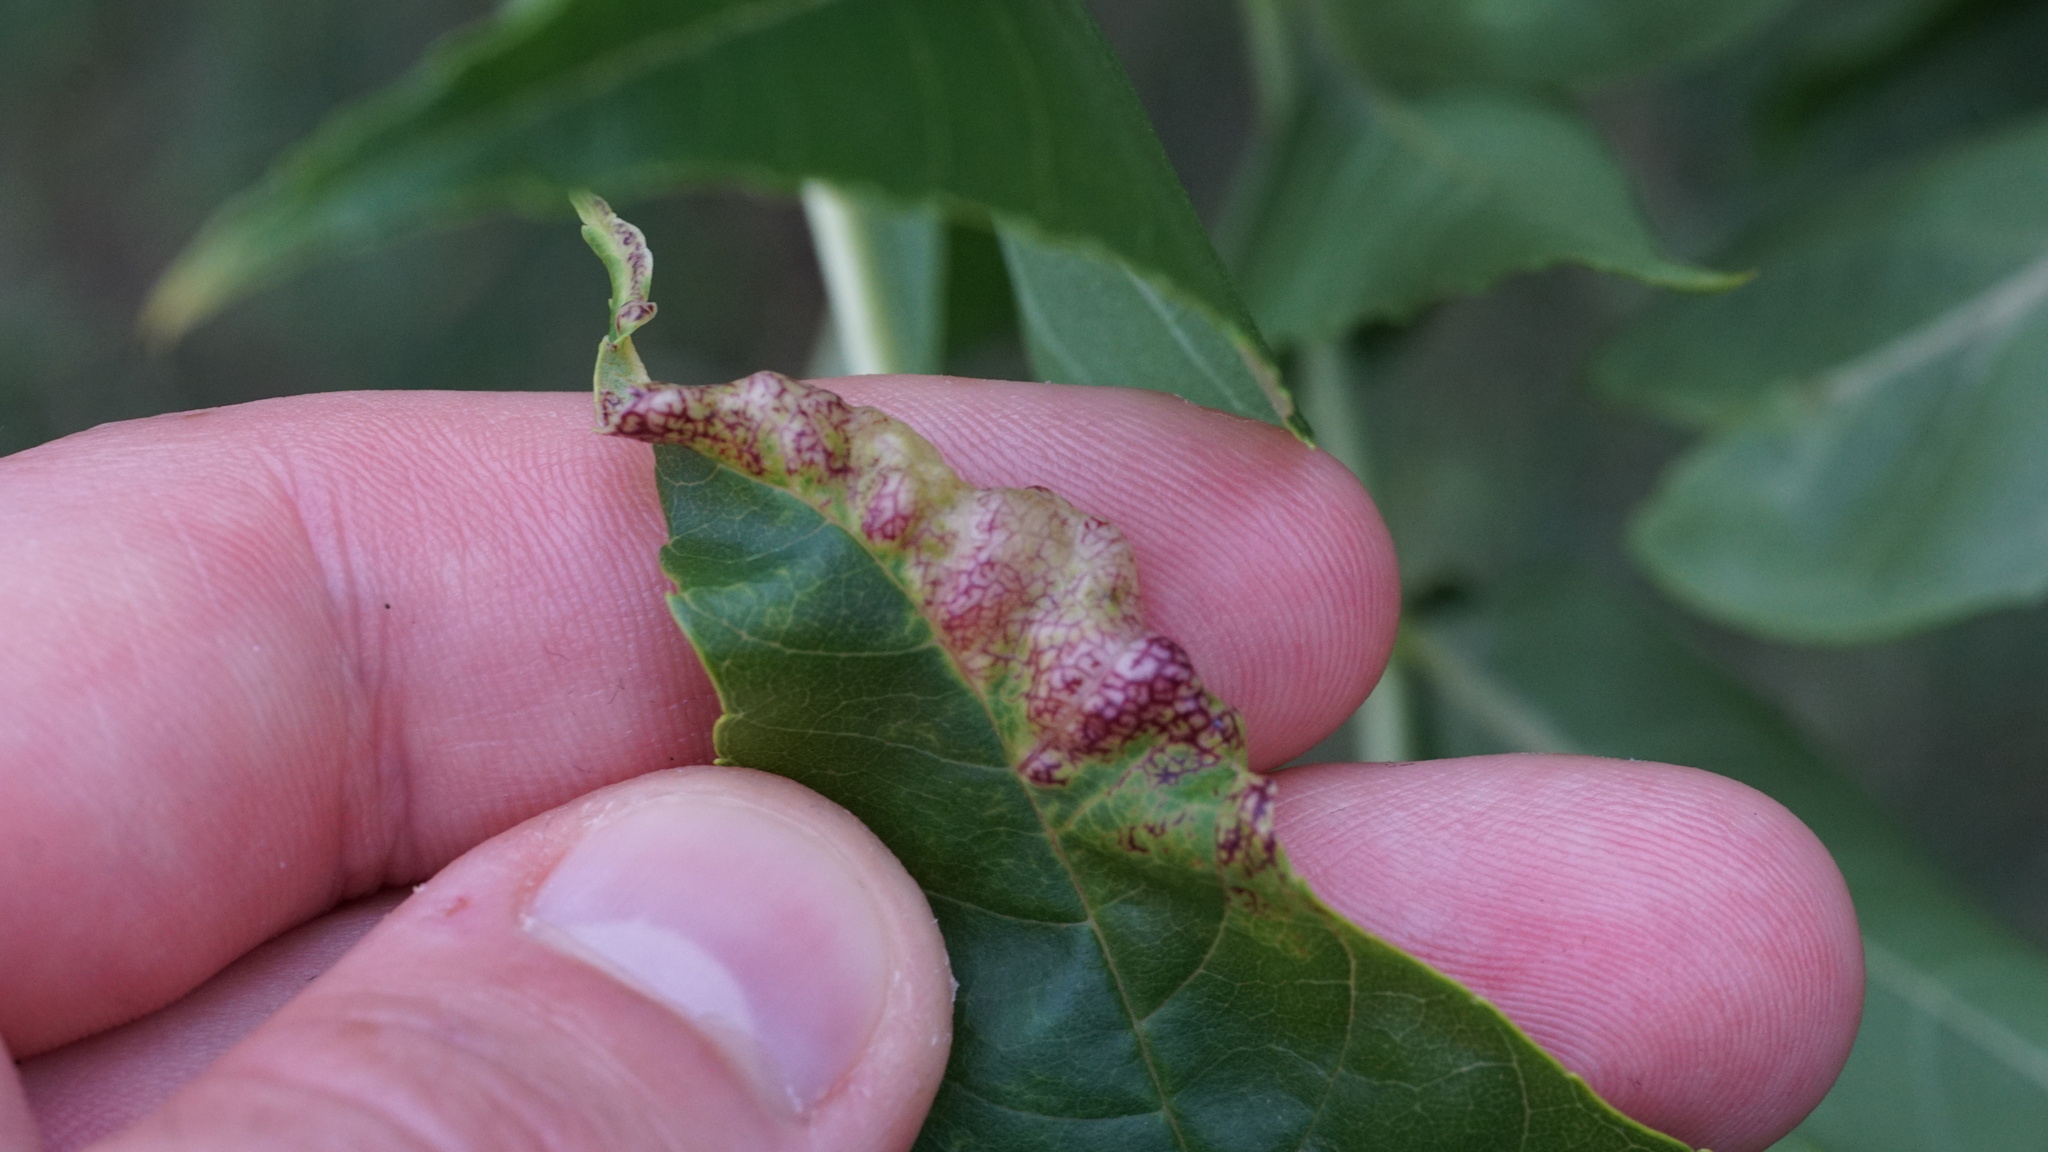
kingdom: Animalia
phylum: Arthropoda
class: Insecta
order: Hemiptera
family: Liviidae
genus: Psyllopsis
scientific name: Psyllopsis fraxini
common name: Jumping plant louse
